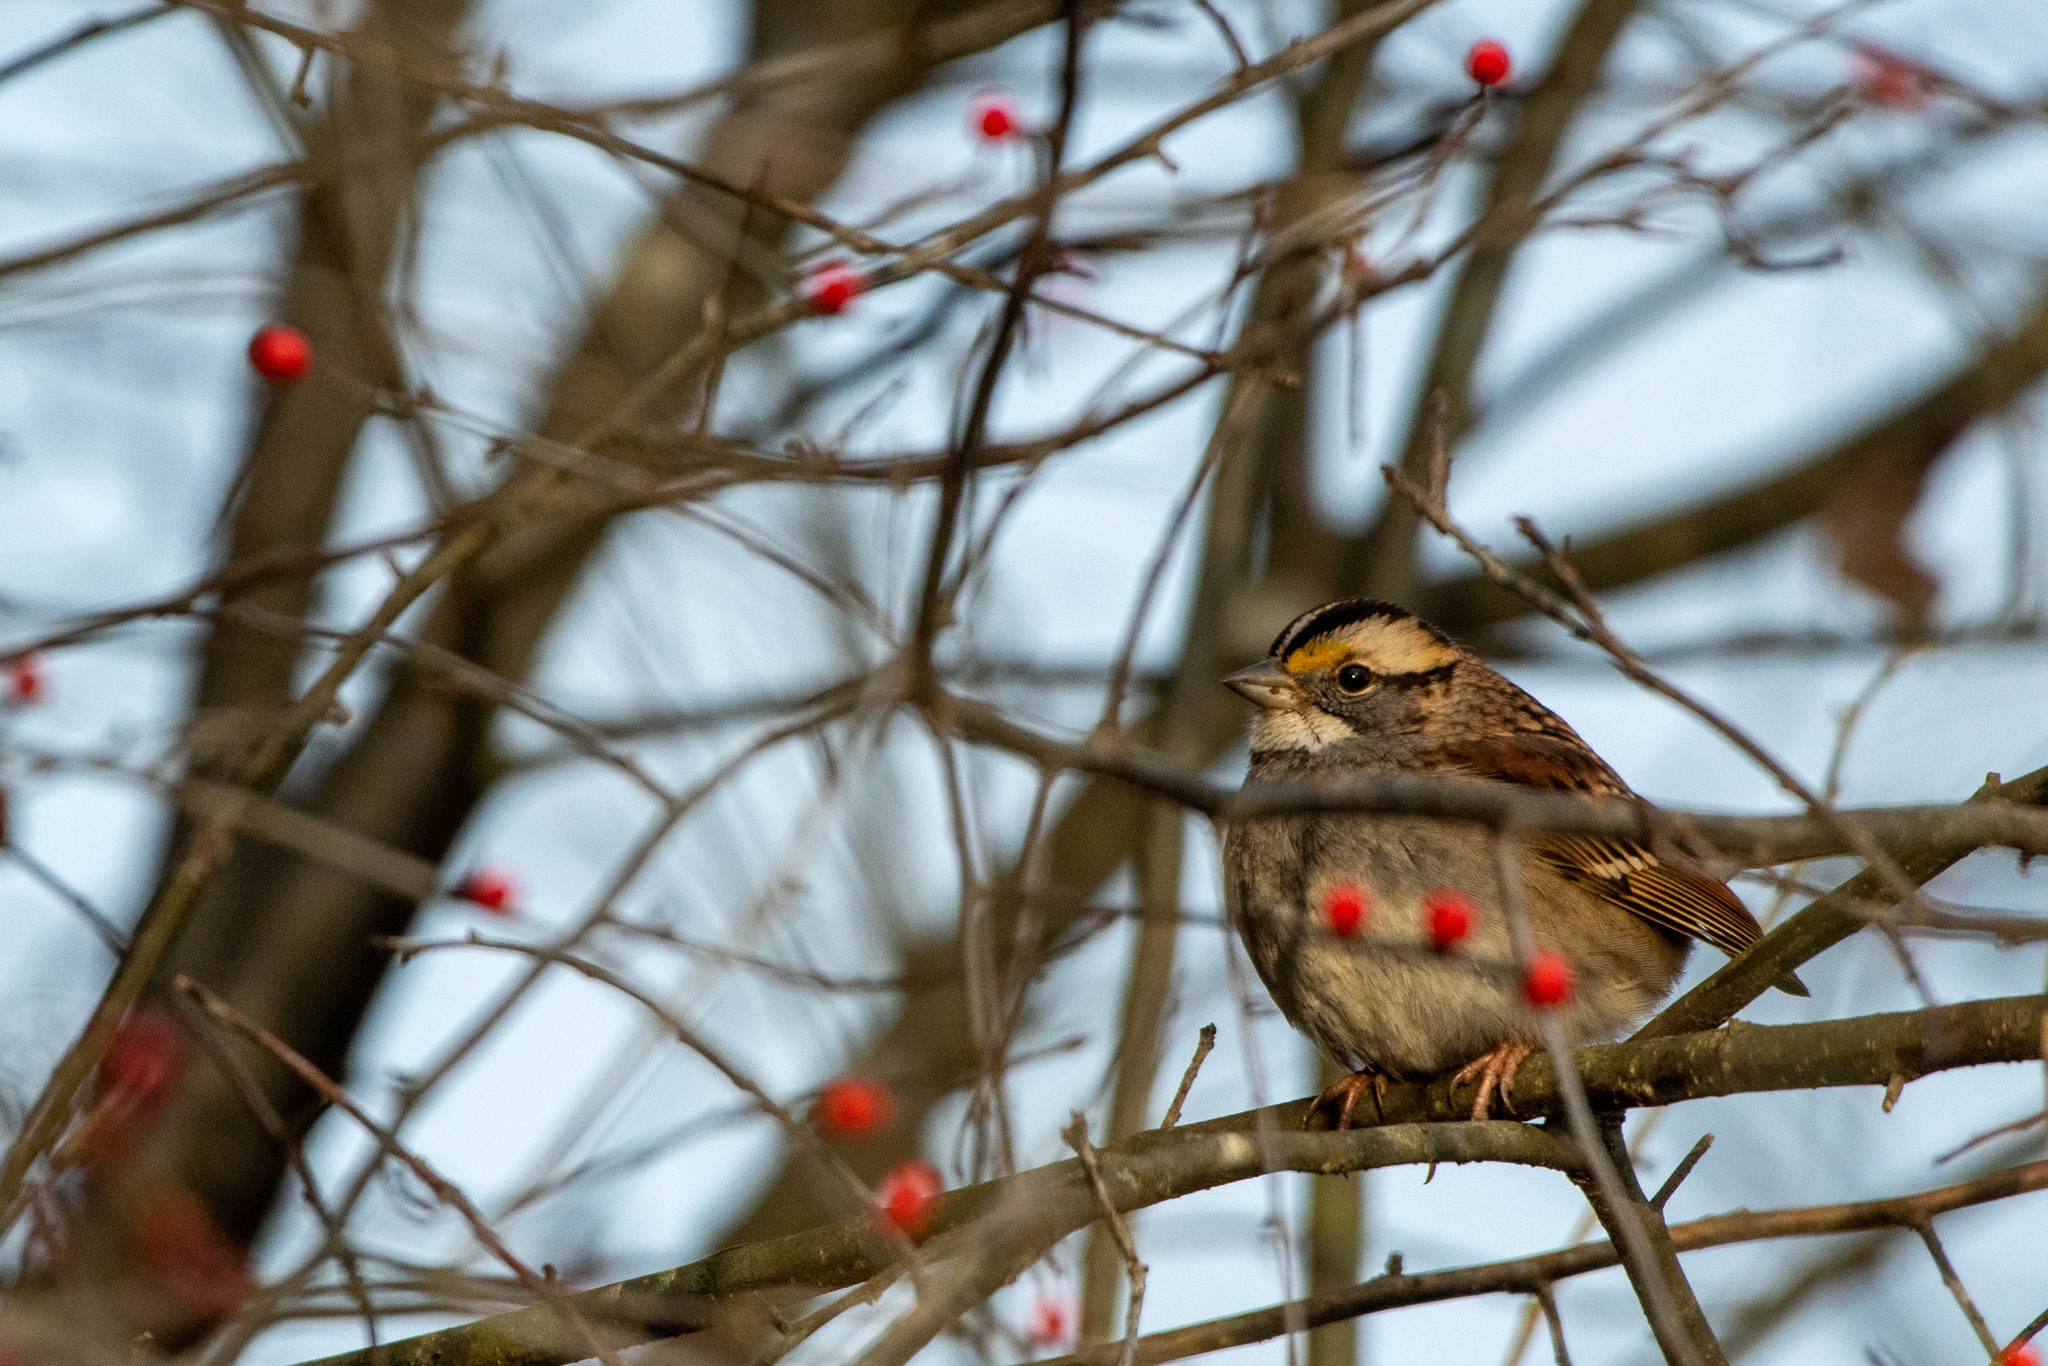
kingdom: Animalia
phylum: Chordata
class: Aves
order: Passeriformes
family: Passerellidae
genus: Zonotrichia
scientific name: Zonotrichia albicollis
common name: White-throated sparrow
